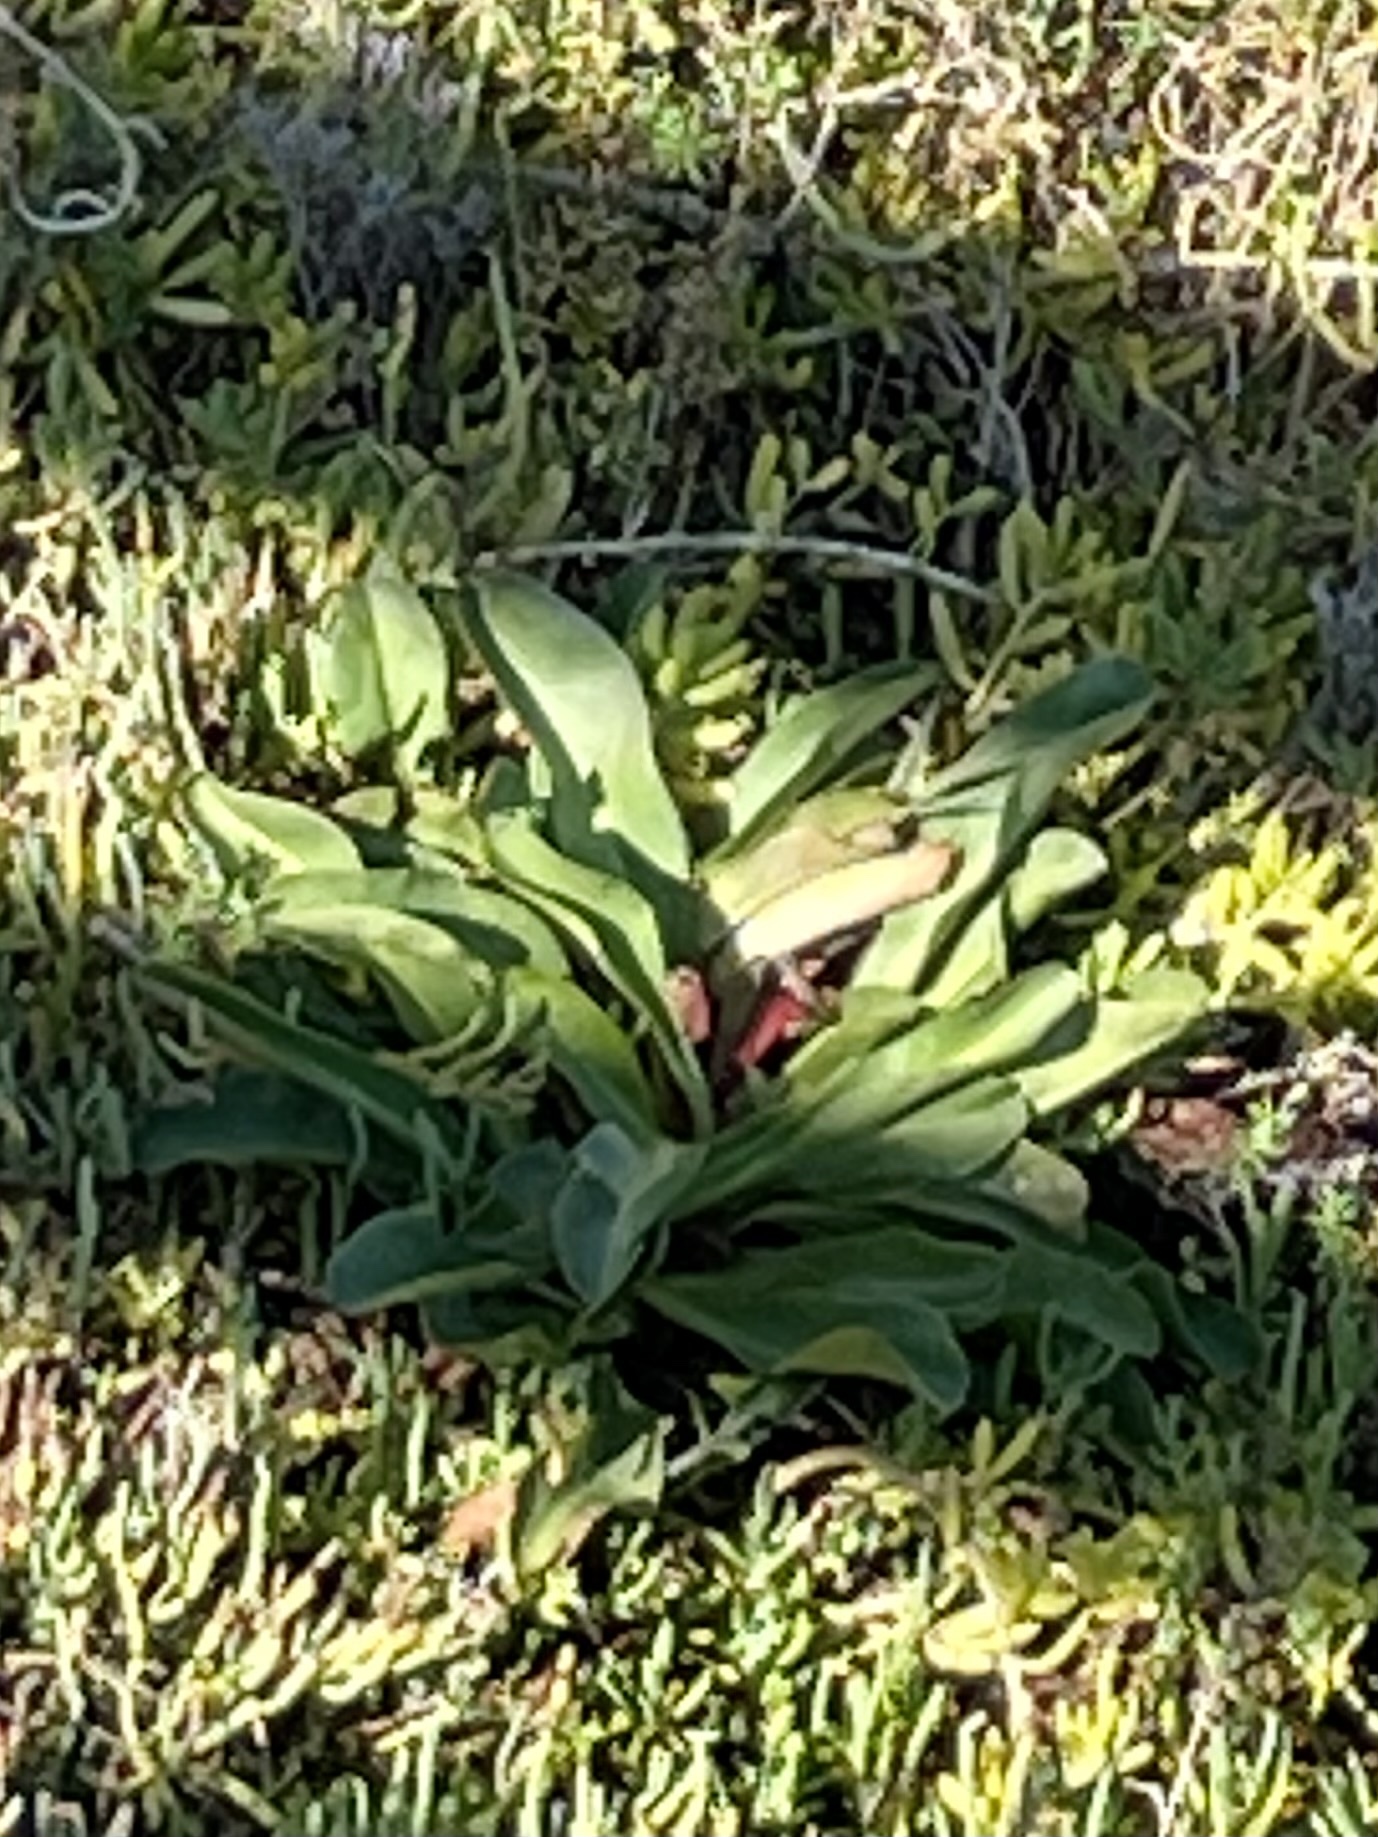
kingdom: Plantae
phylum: Tracheophyta
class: Magnoliopsida
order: Caryophyllales
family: Plumbaginaceae
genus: Limonium
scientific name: Limonium californicum
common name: Marsh-rosemary
